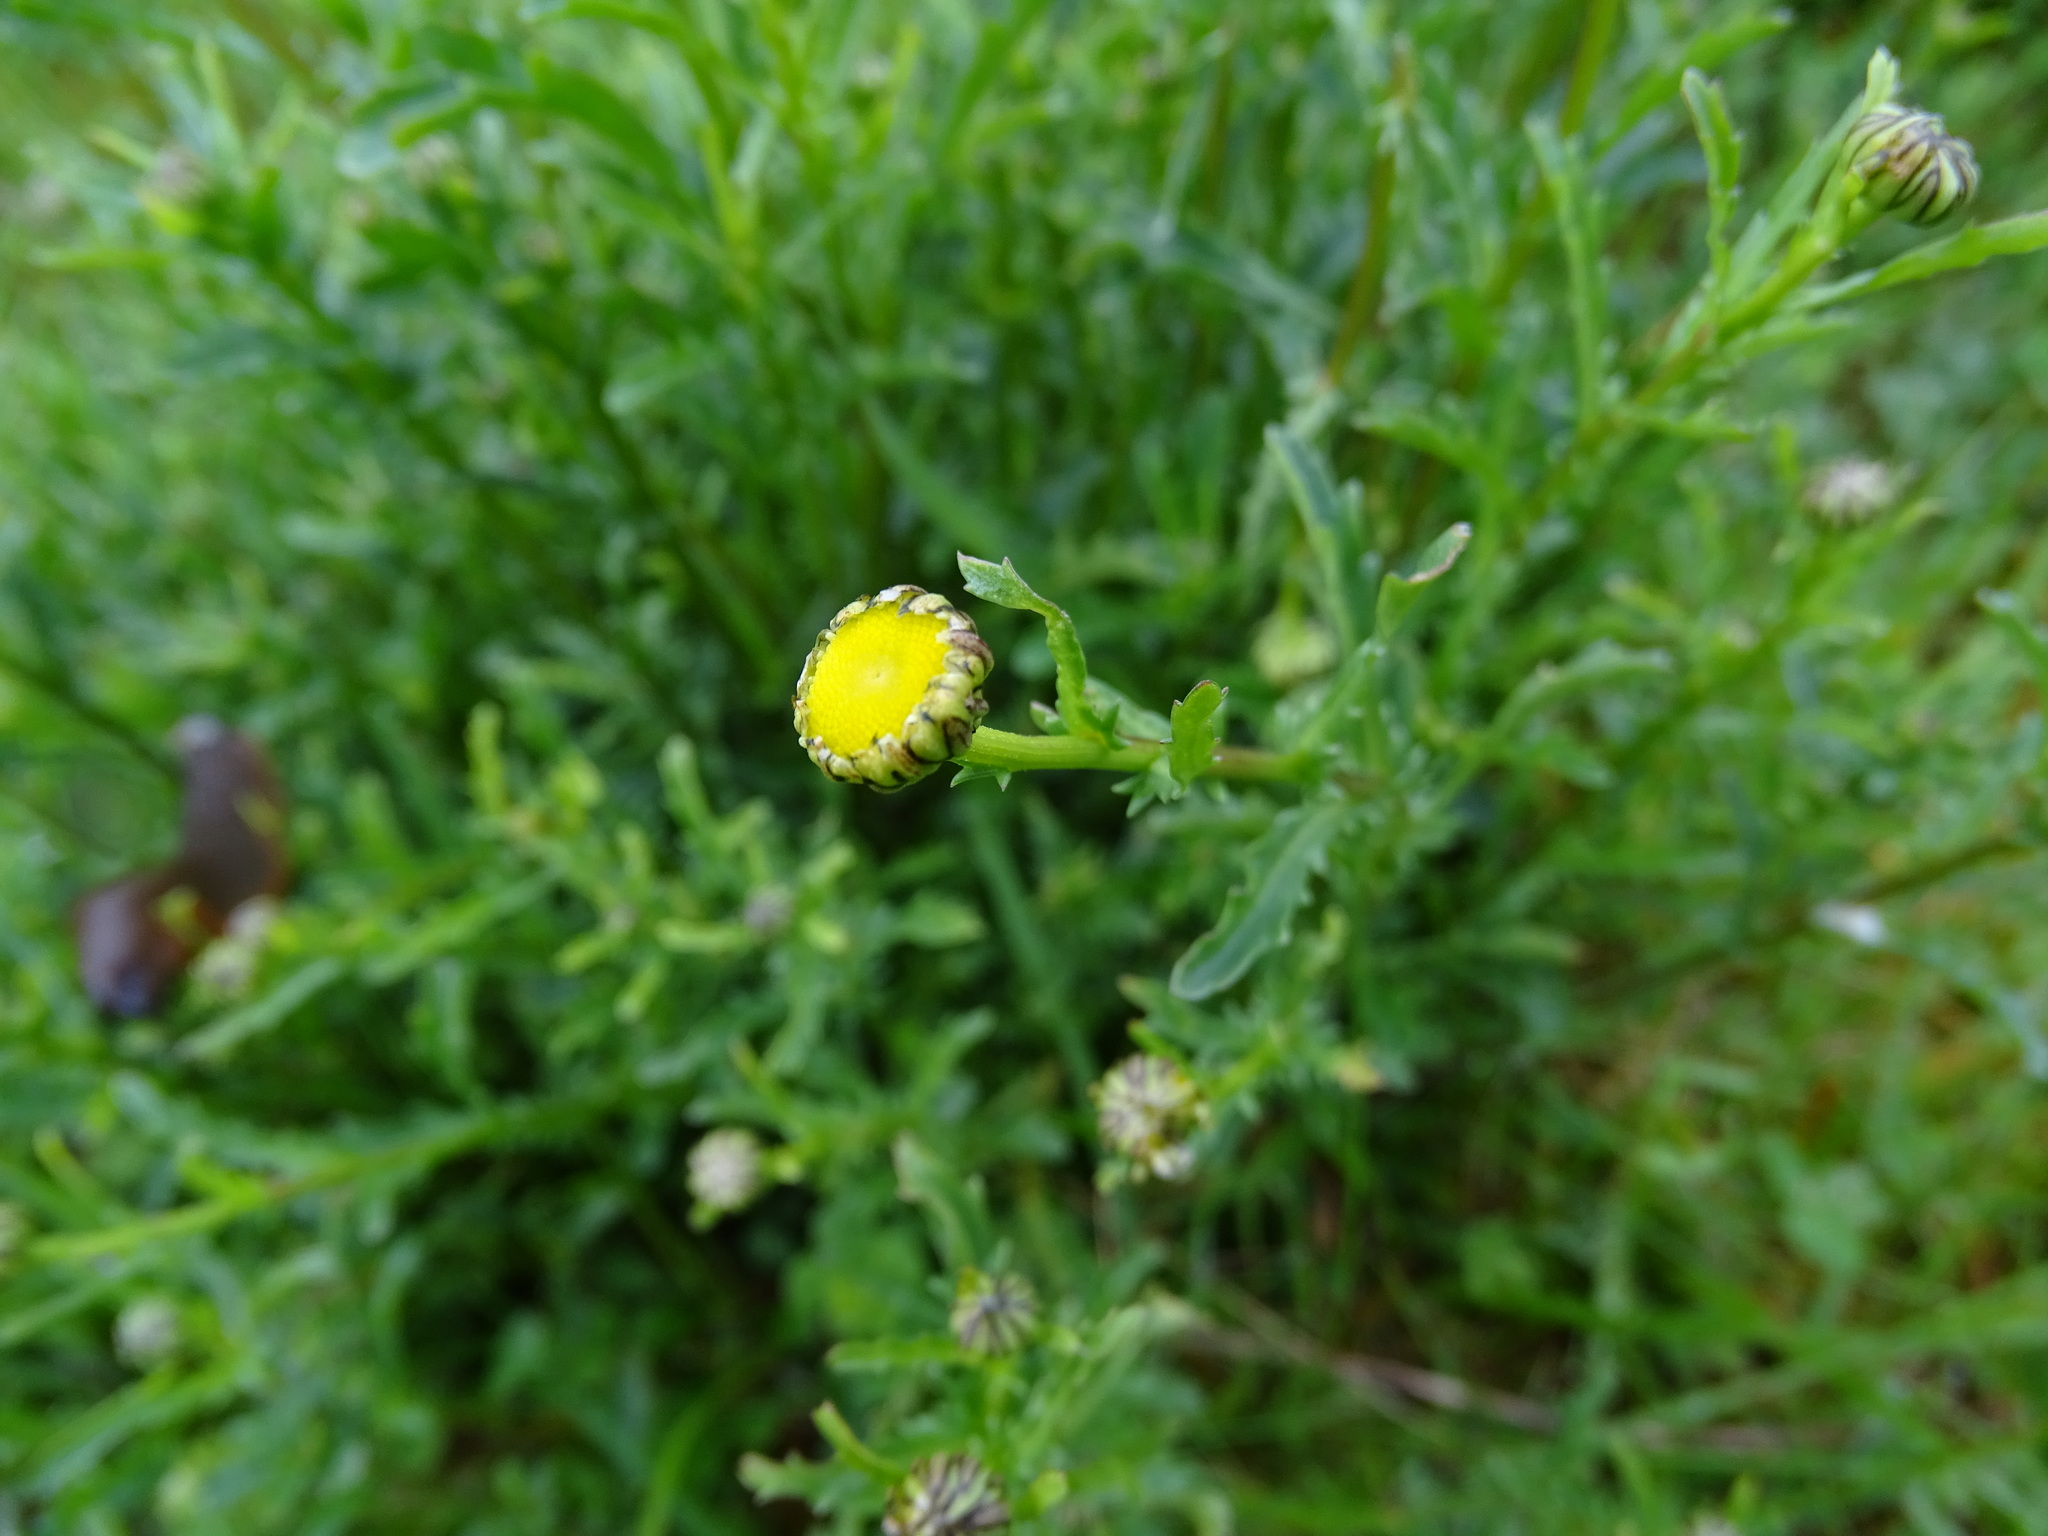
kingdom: Plantae
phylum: Tracheophyta
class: Magnoliopsida
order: Asterales
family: Asteraceae
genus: Leucanthemum
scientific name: Leucanthemum vulgare
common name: Oxeye daisy
